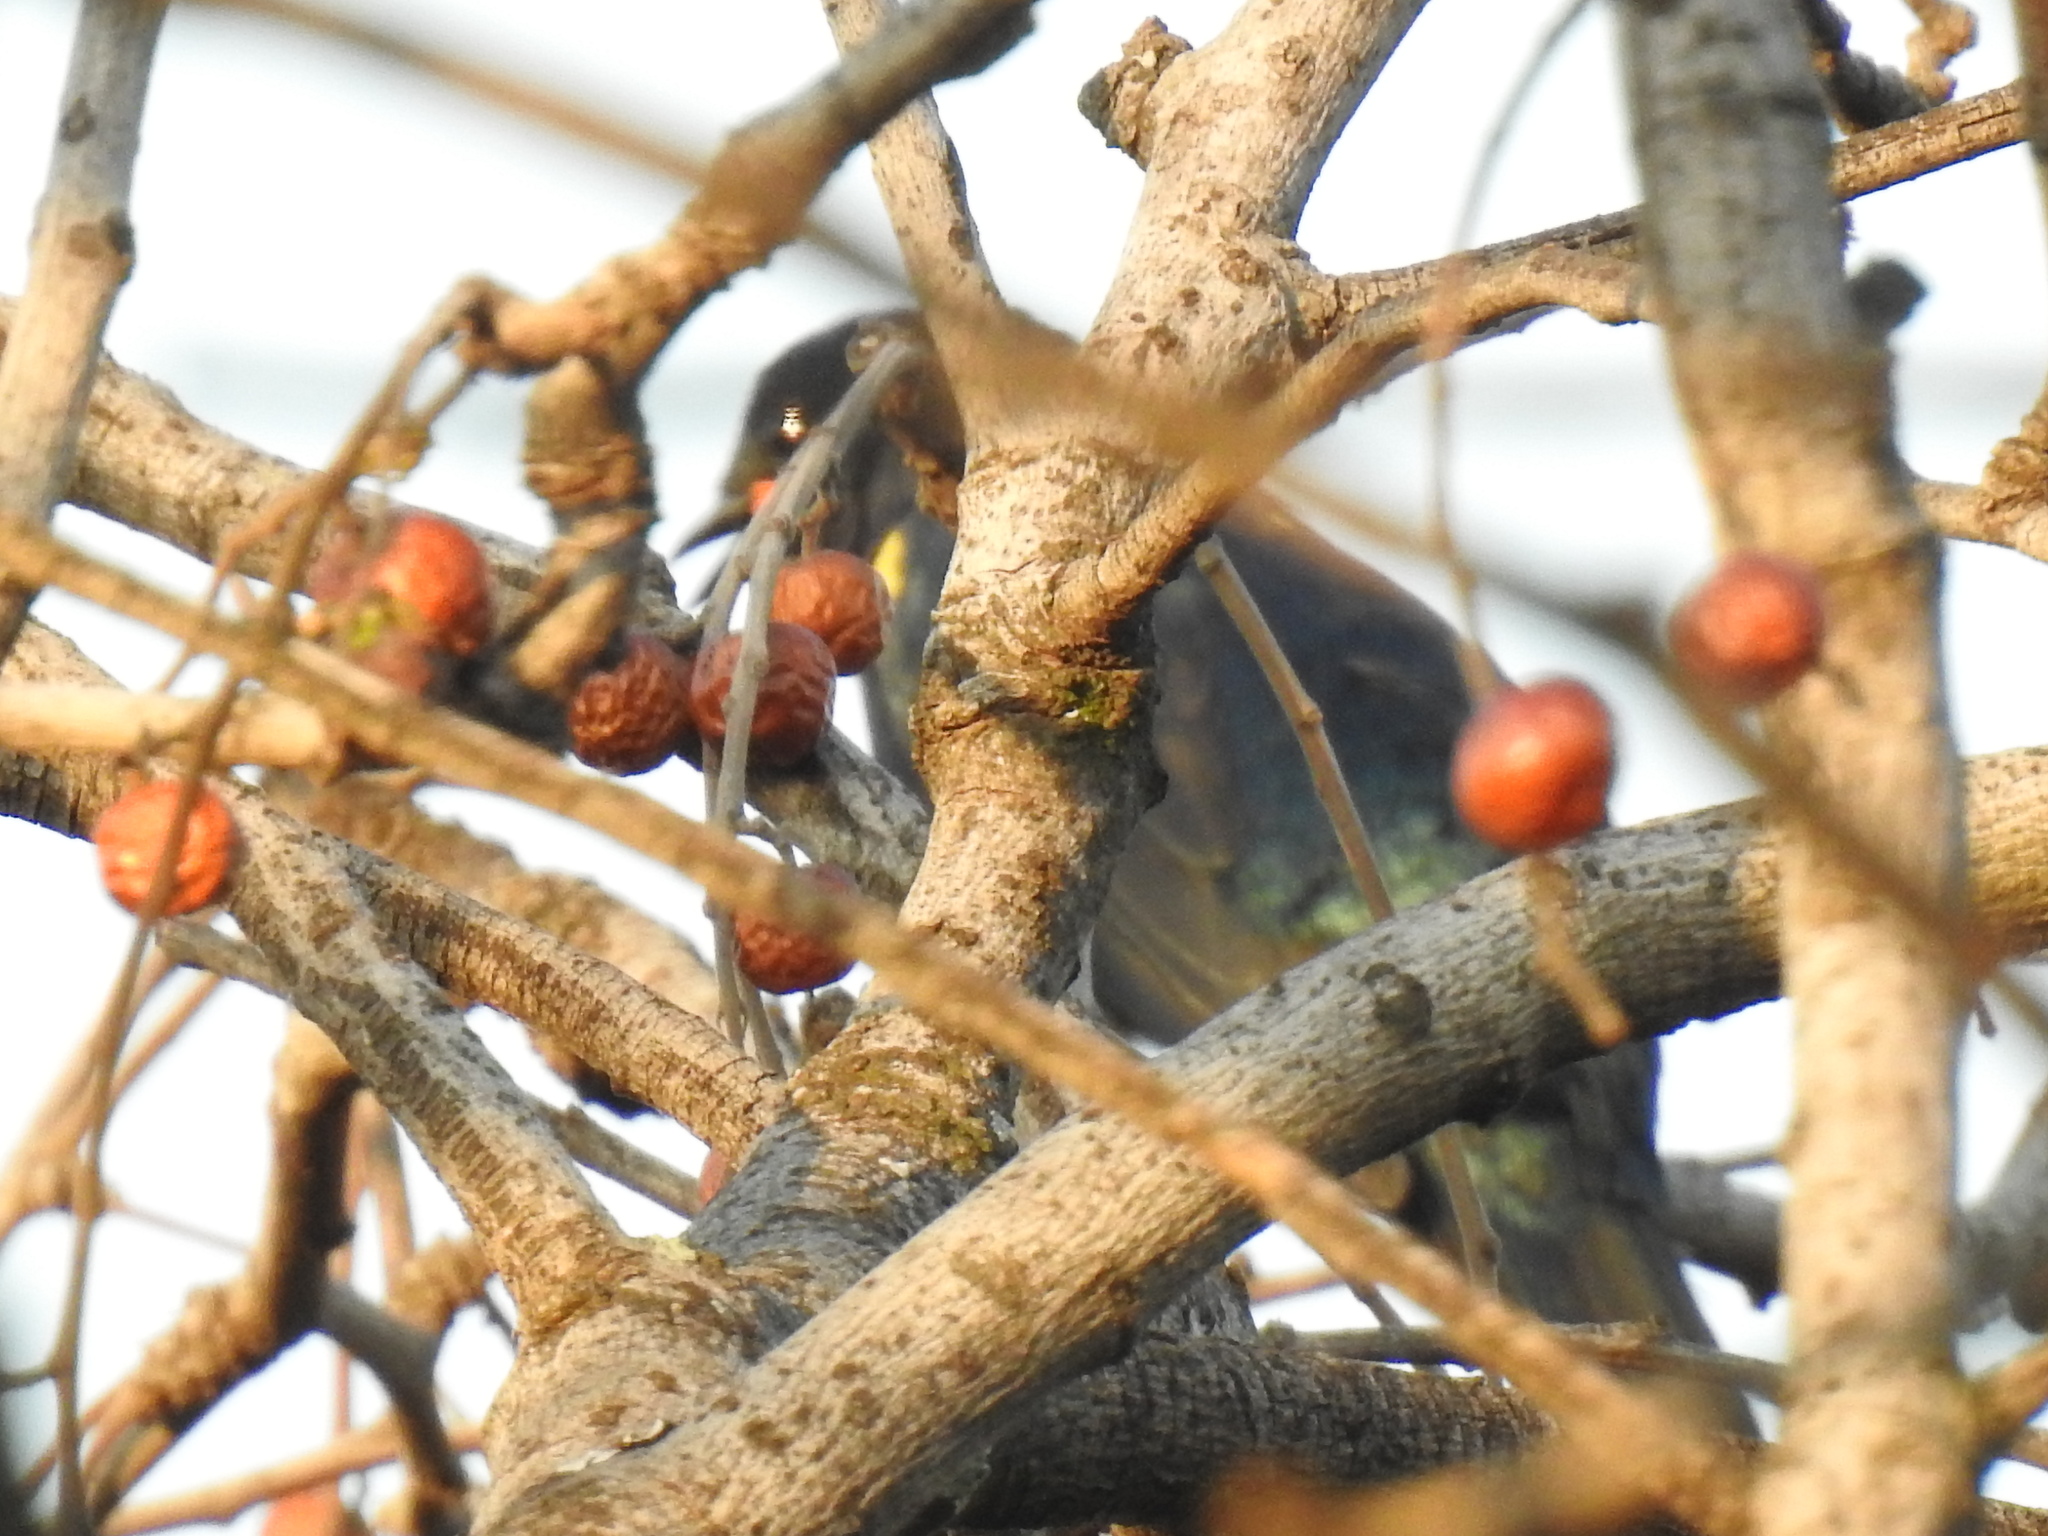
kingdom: Animalia
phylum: Chordata
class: Aves
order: Passeriformes
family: Campephagidae
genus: Campephaga
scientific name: Campephaga flava
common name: Black cuckooshrike
